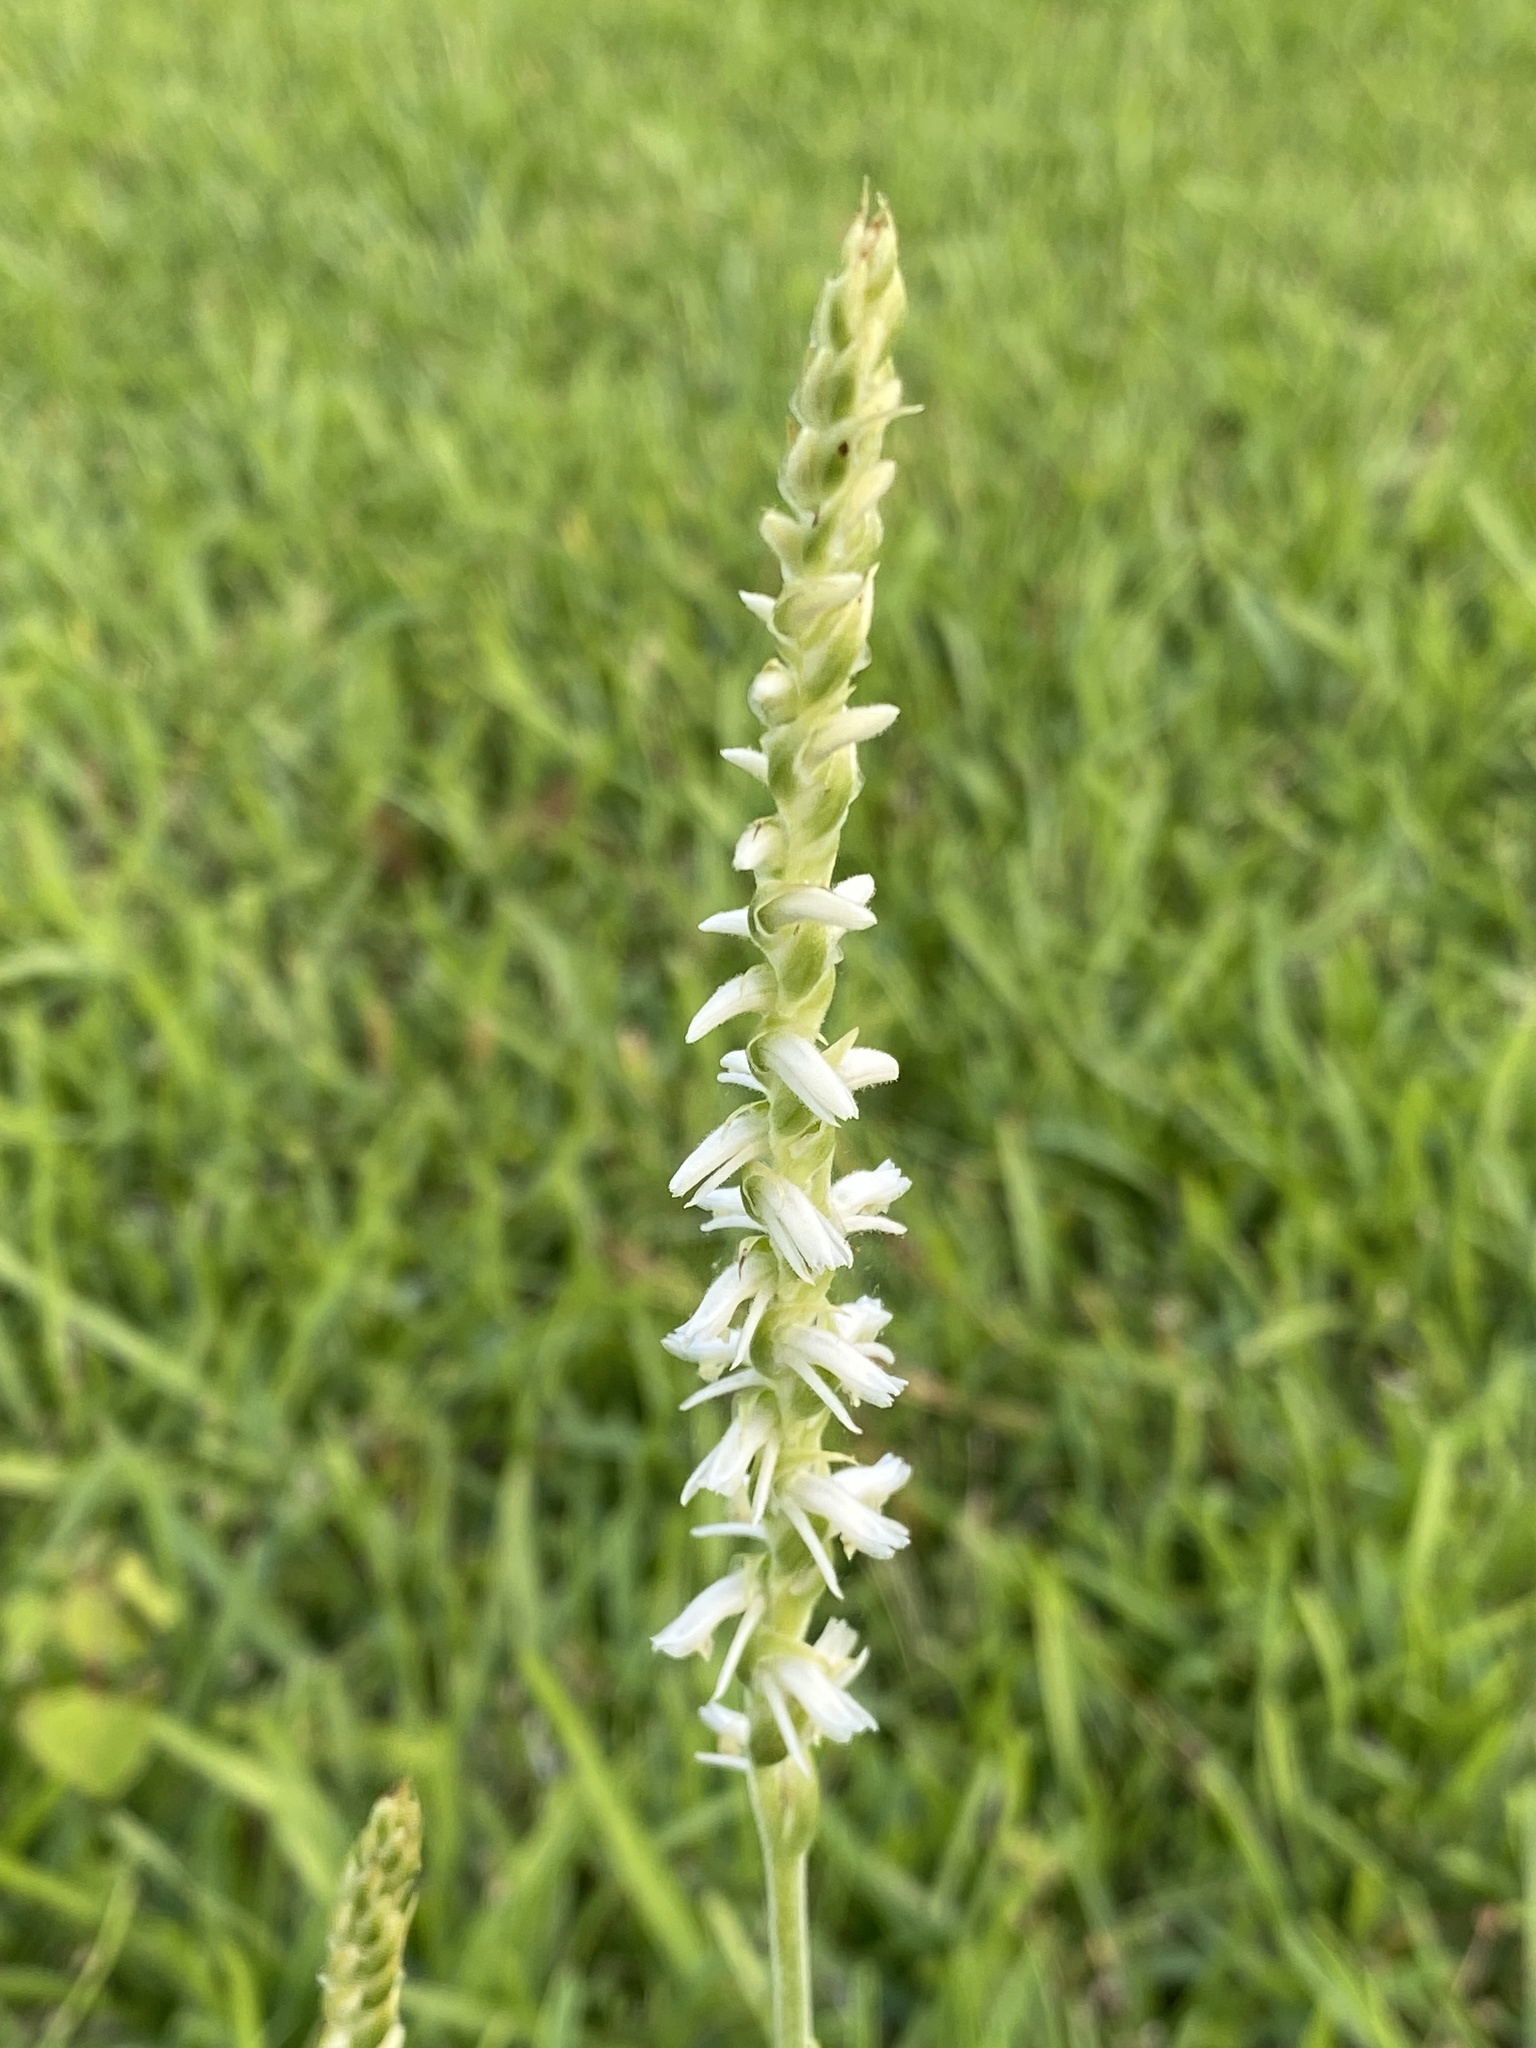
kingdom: Plantae
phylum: Tracheophyta
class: Liliopsida
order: Asparagales
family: Orchidaceae
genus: Spiranthes
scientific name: Spiranthes vernalis
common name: Spring ladies'-tresses
